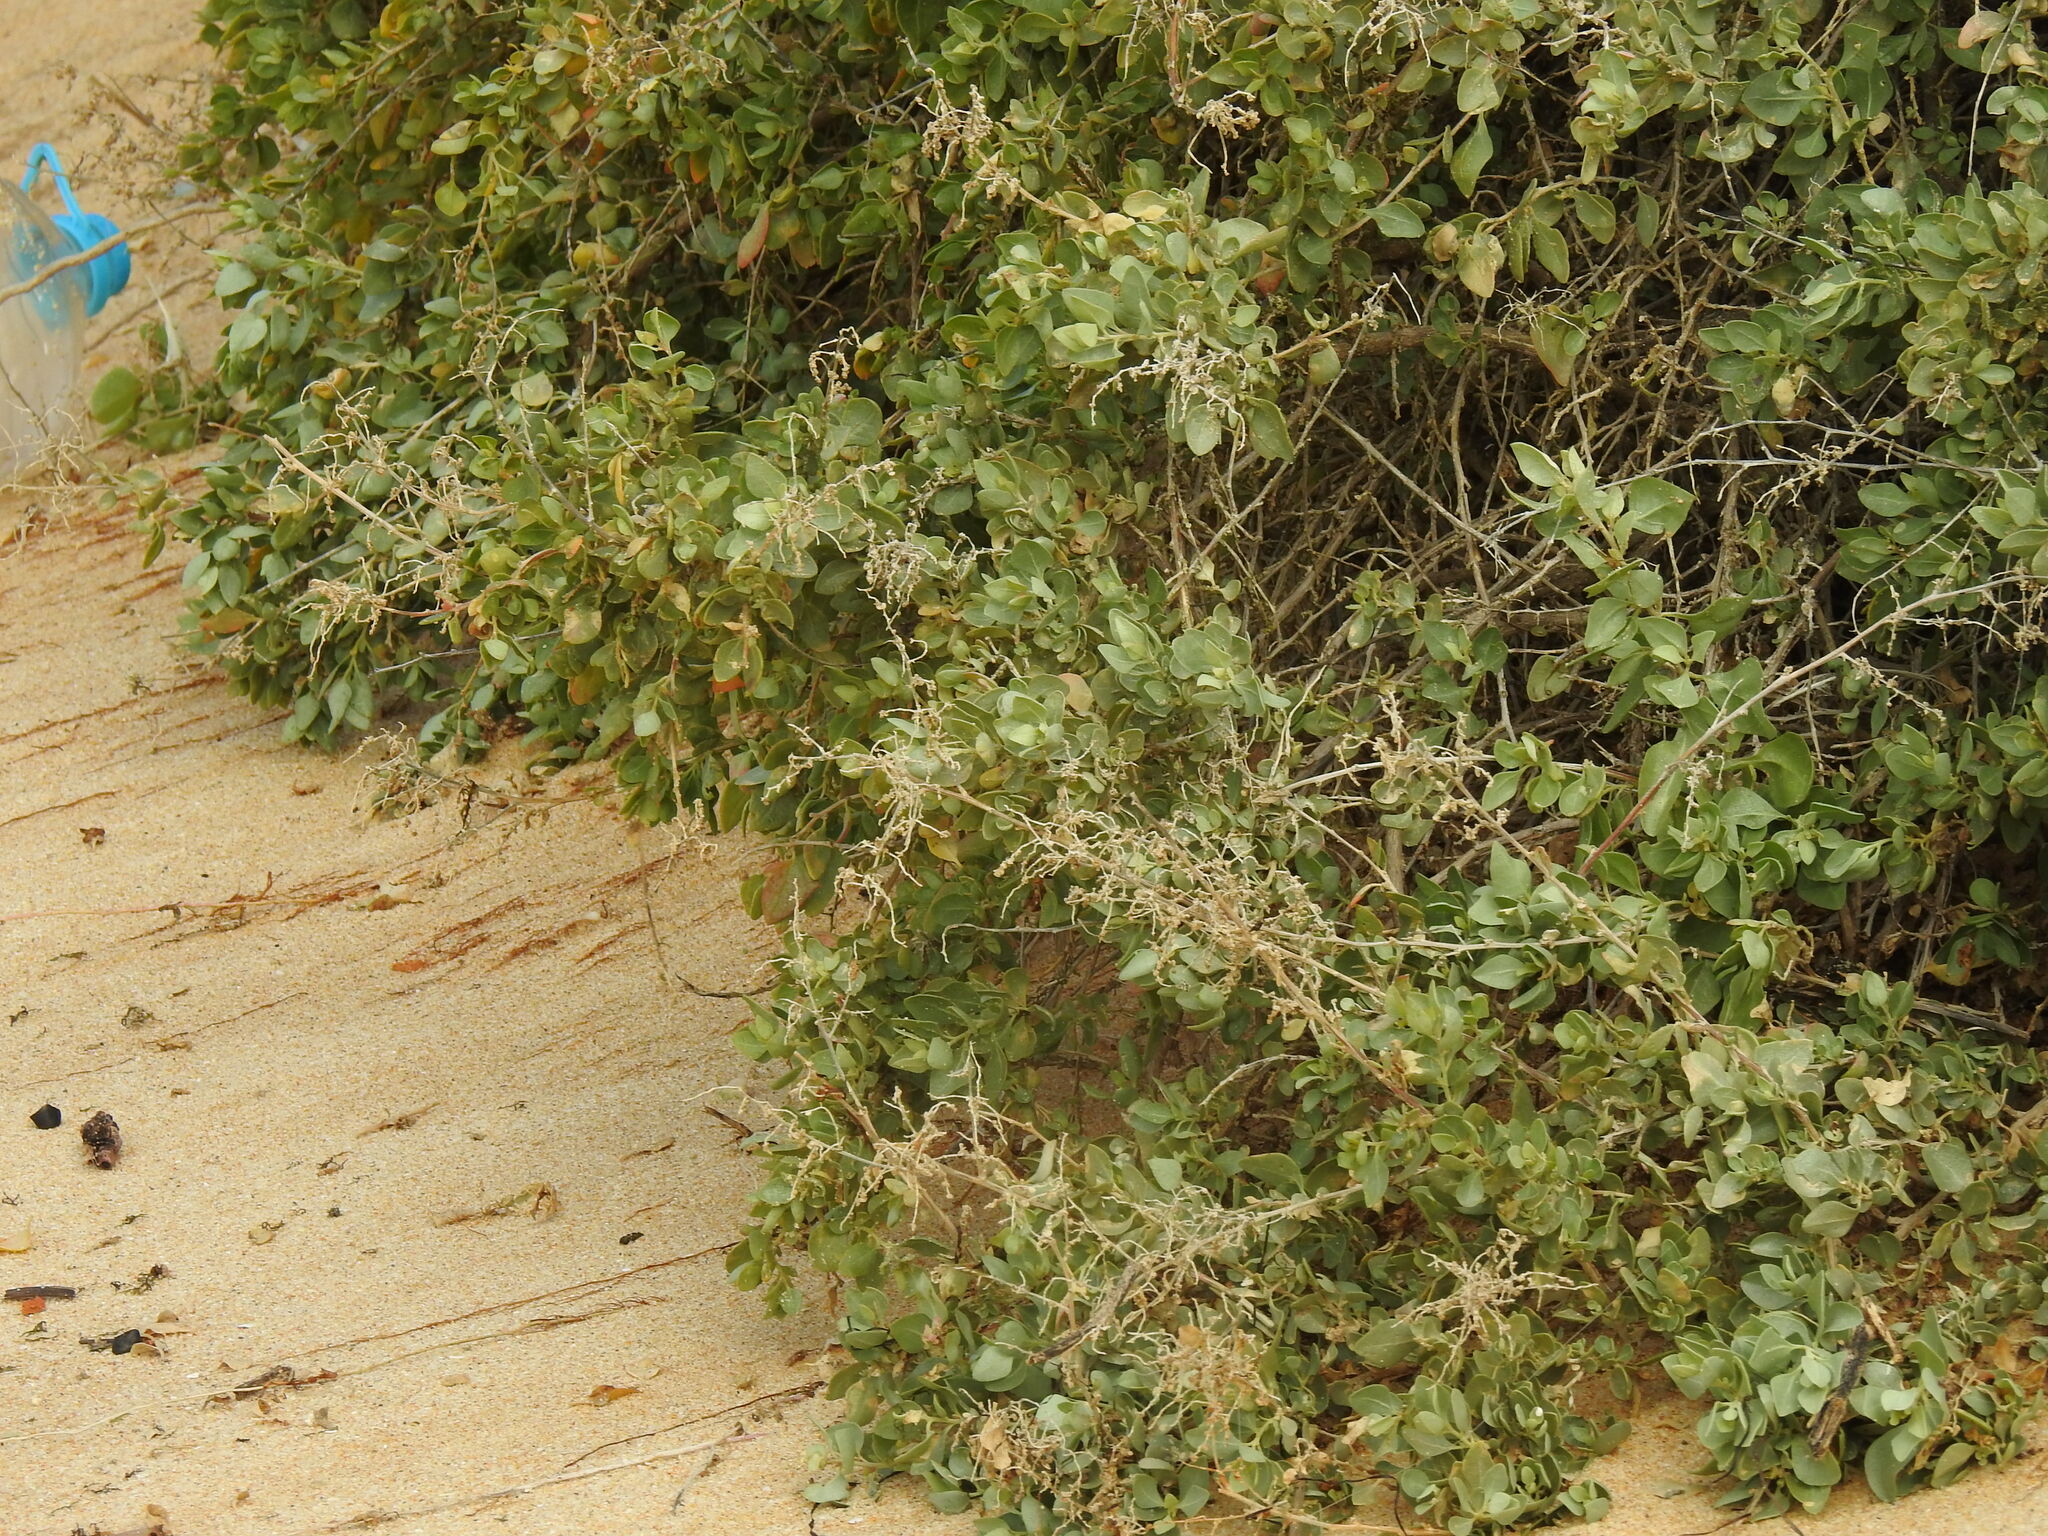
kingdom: Plantae
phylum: Tracheophyta
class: Magnoliopsida
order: Caryophyllales
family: Amaranthaceae
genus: Atriplex
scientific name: Atriplex halimus
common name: Shrubby orache
